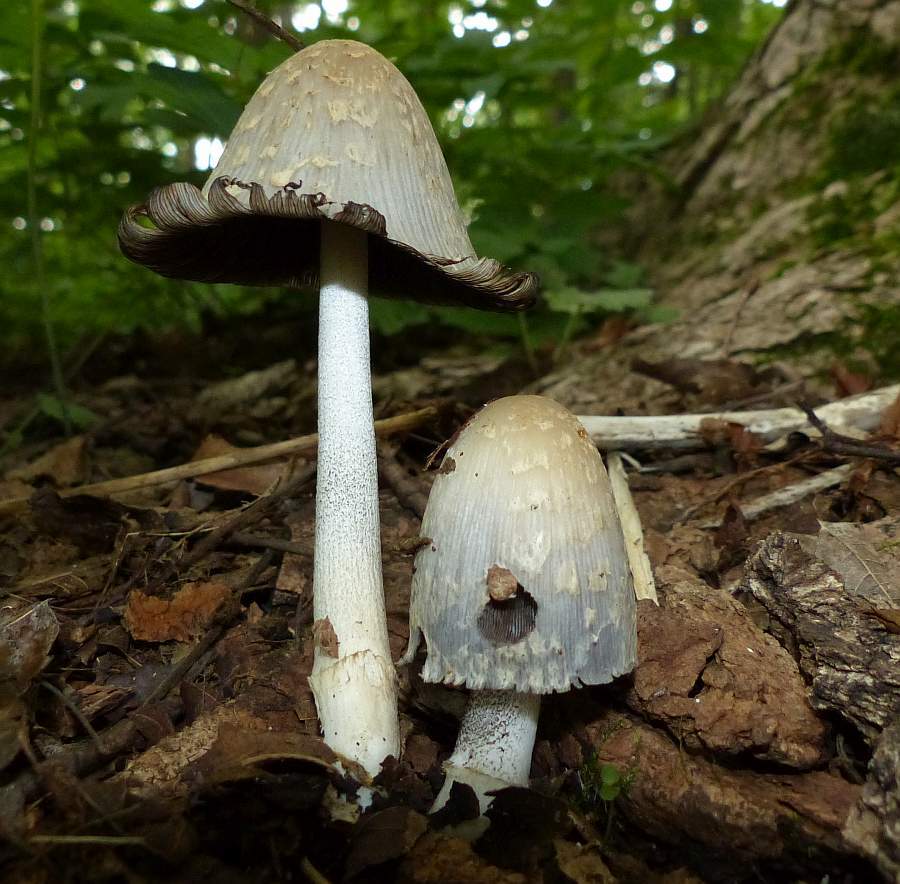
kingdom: Fungi
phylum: Basidiomycota
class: Agaricomycetes
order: Agaricales
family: Psathyrellaceae
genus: Coprinopsis
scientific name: Coprinopsis variegata
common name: Scaly ink cap
